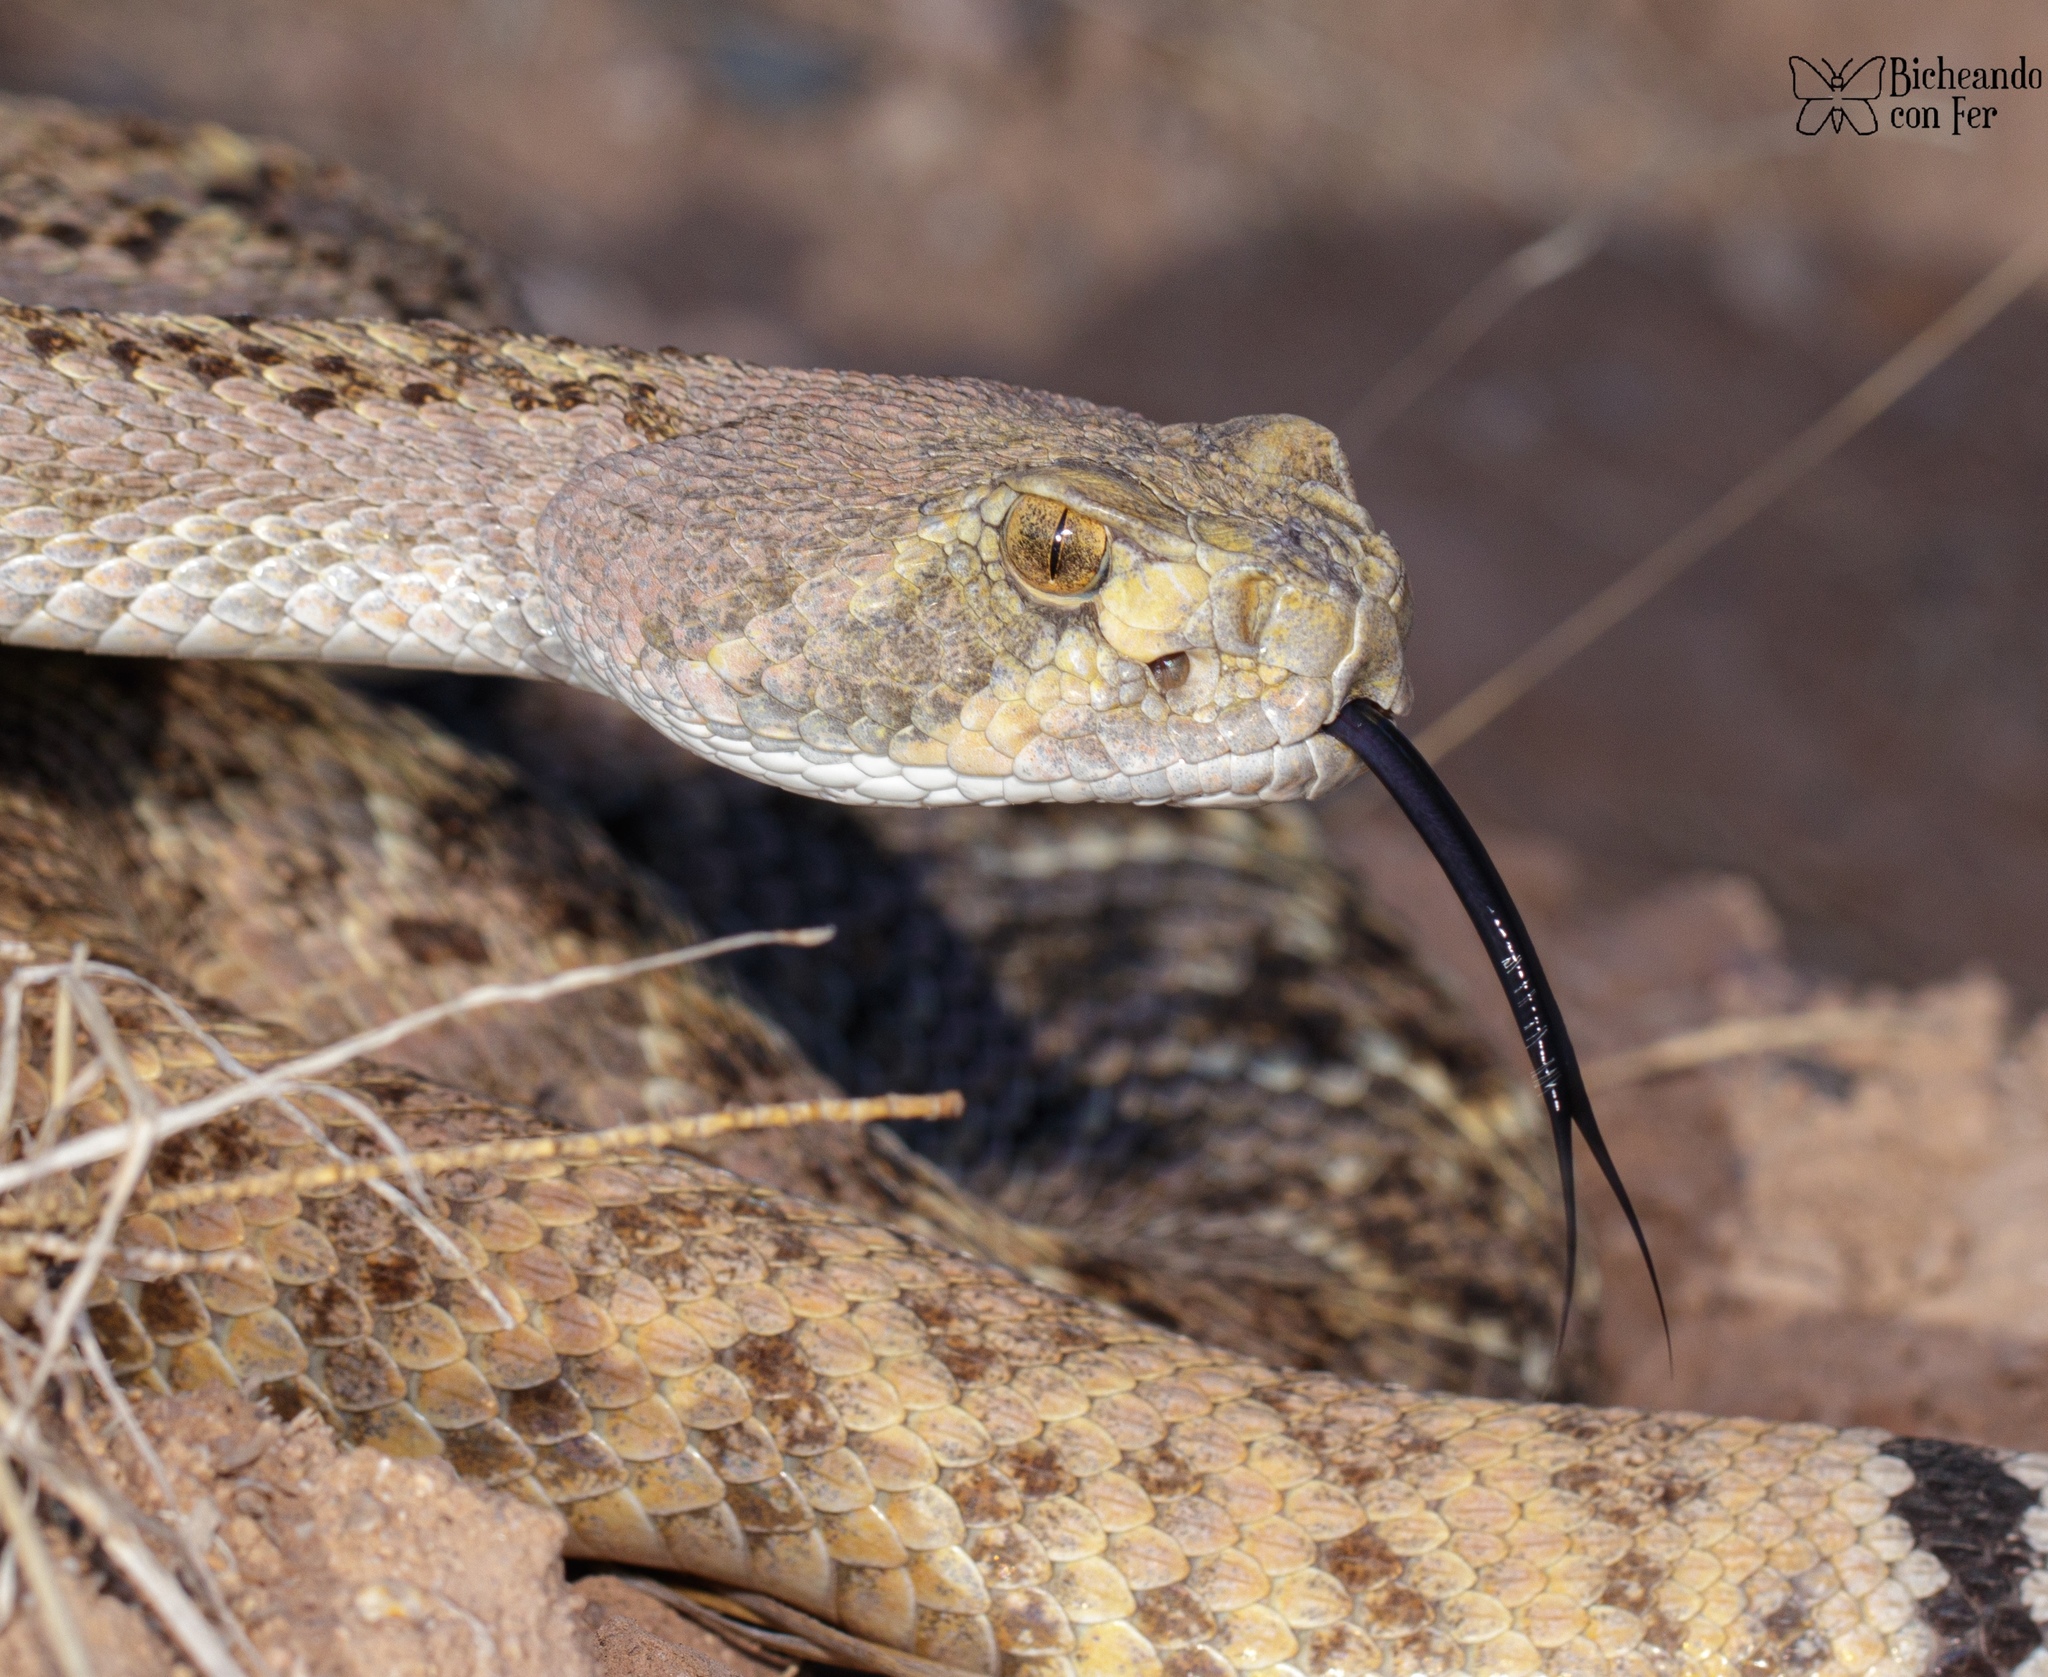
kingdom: Animalia
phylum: Chordata
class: Squamata
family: Viperidae
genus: Crotalus
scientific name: Crotalus atrox
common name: Western diamond-backed rattlesnake
